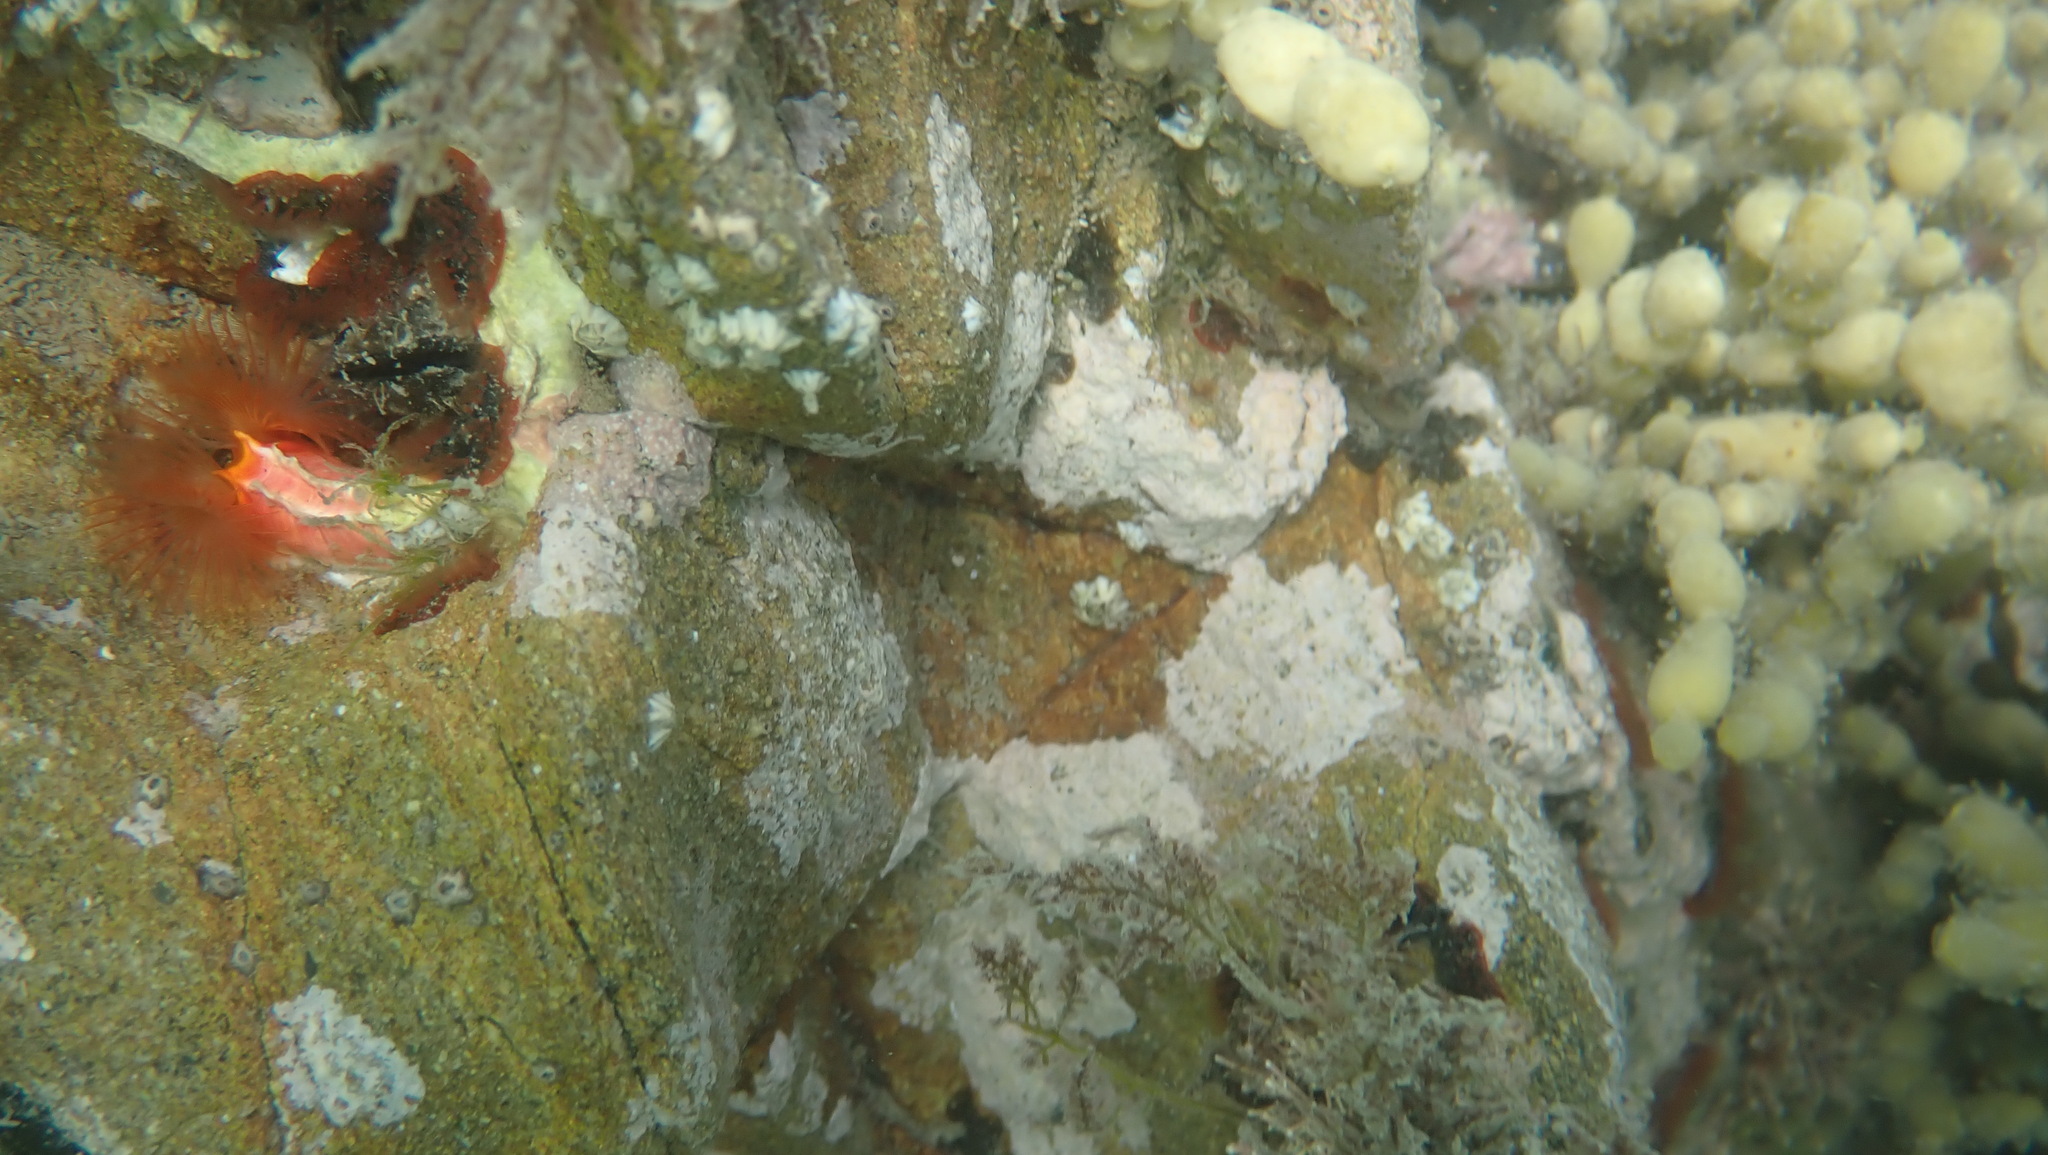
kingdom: Animalia
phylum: Annelida
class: Polychaeta
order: Sabellida
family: Serpulidae
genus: Galeolaria
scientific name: Galeolaria hystrix
